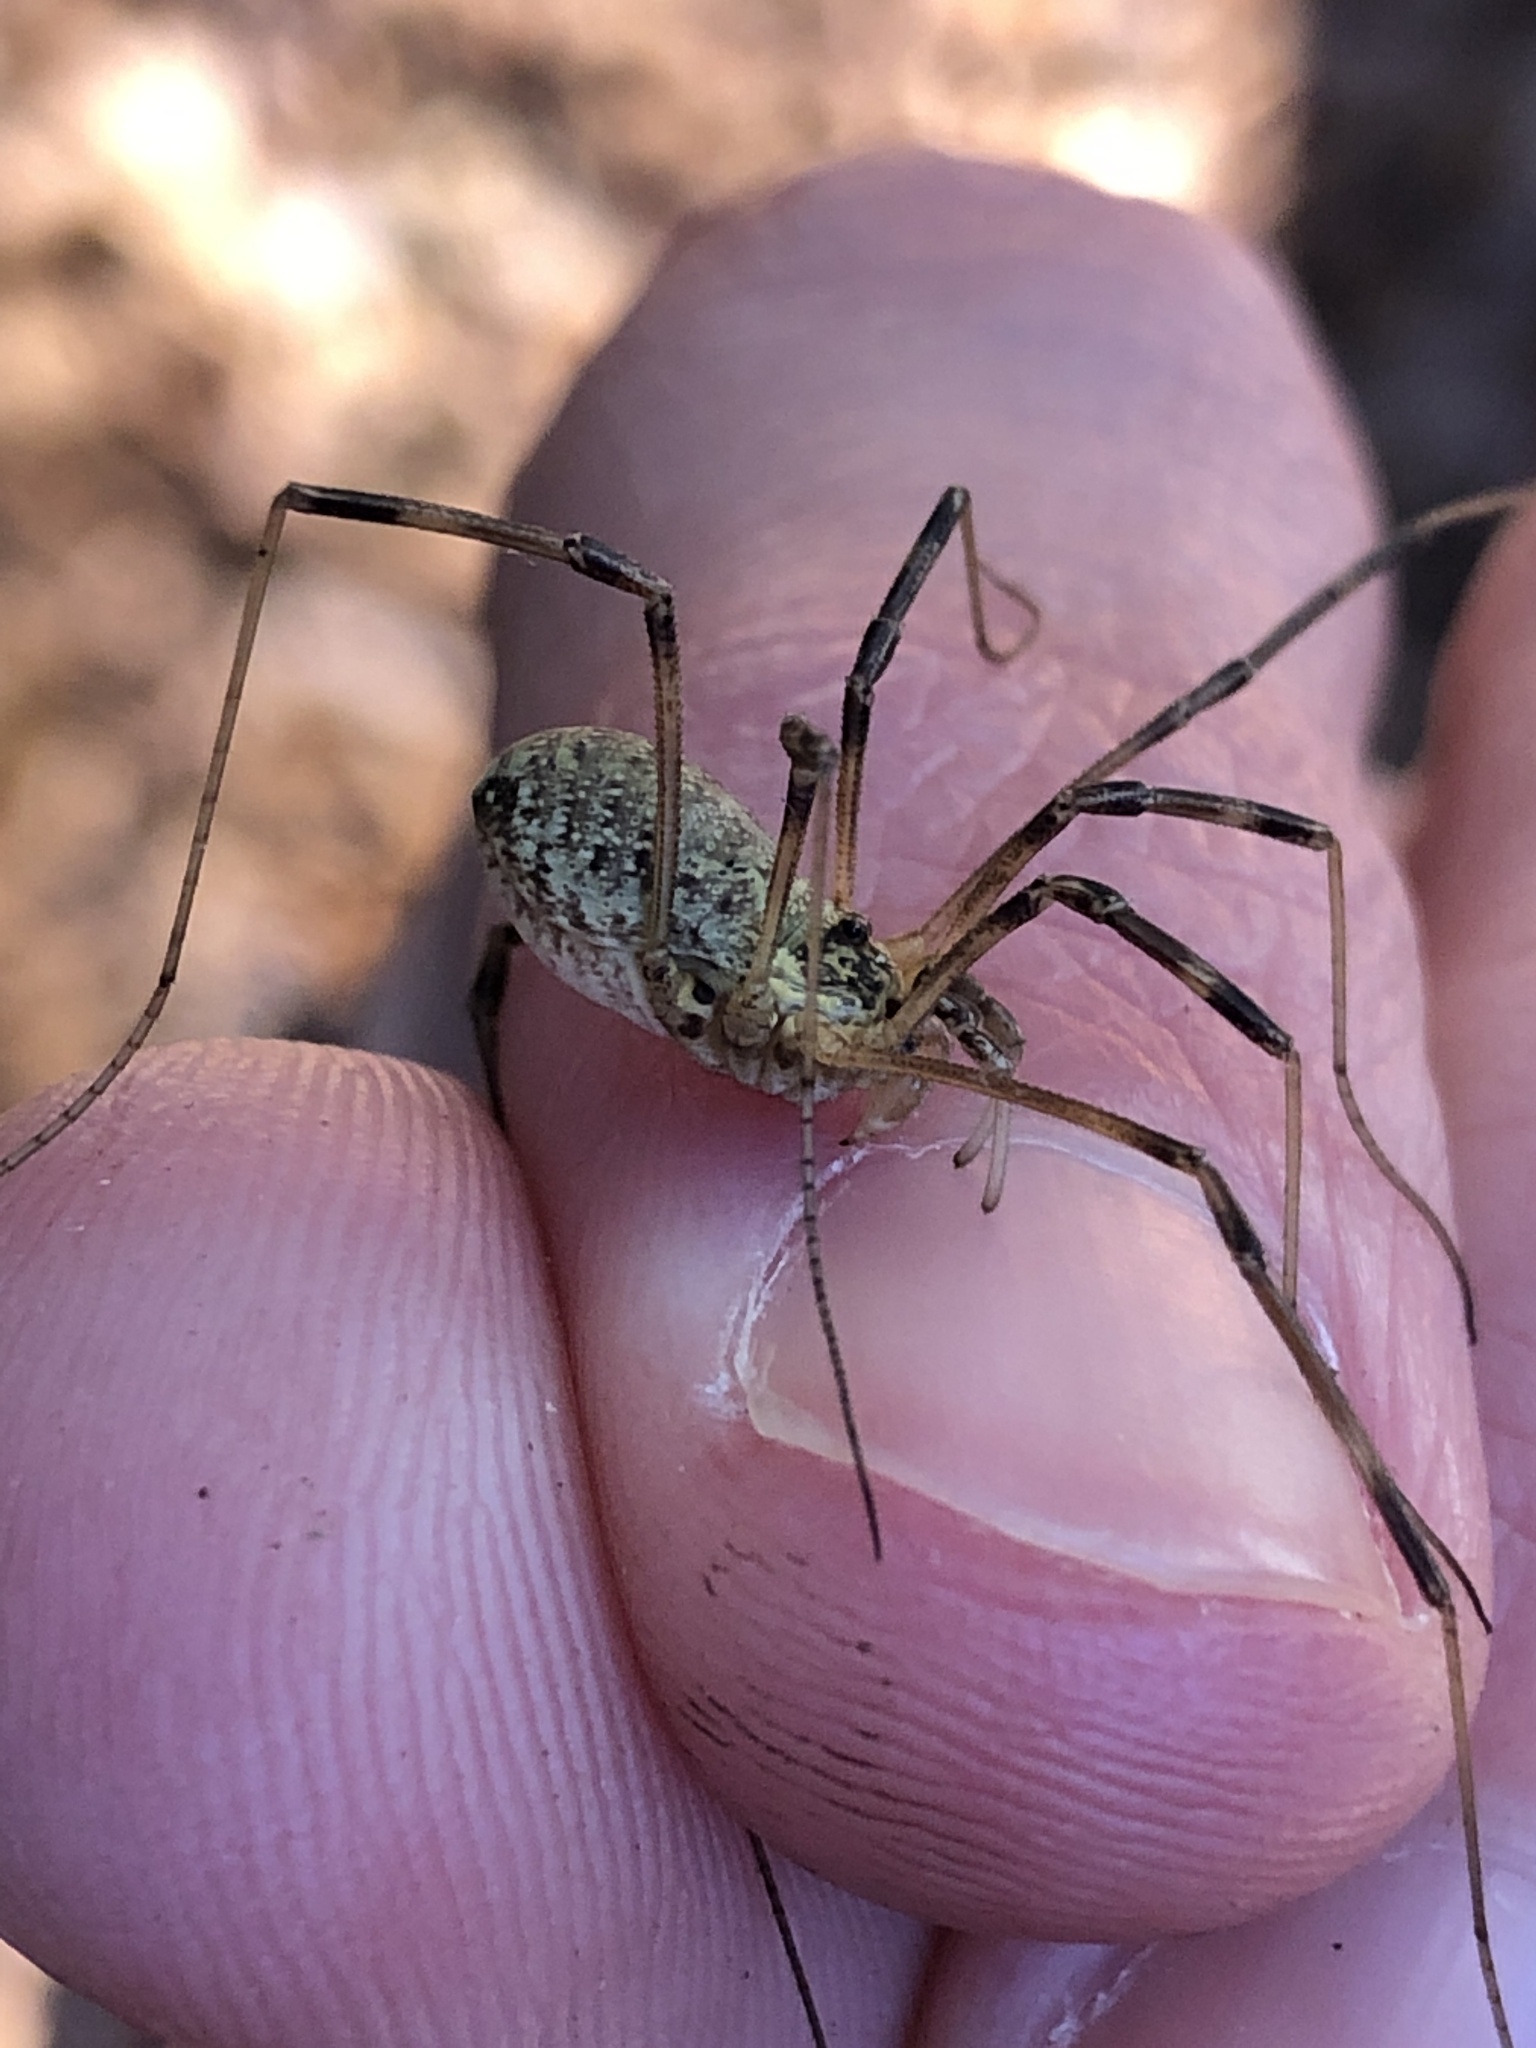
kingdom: Animalia
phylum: Arthropoda
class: Arachnida
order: Opiliones
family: Phalangiidae
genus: Mitopus
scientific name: Mitopus morio
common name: Saddleback harvestman
